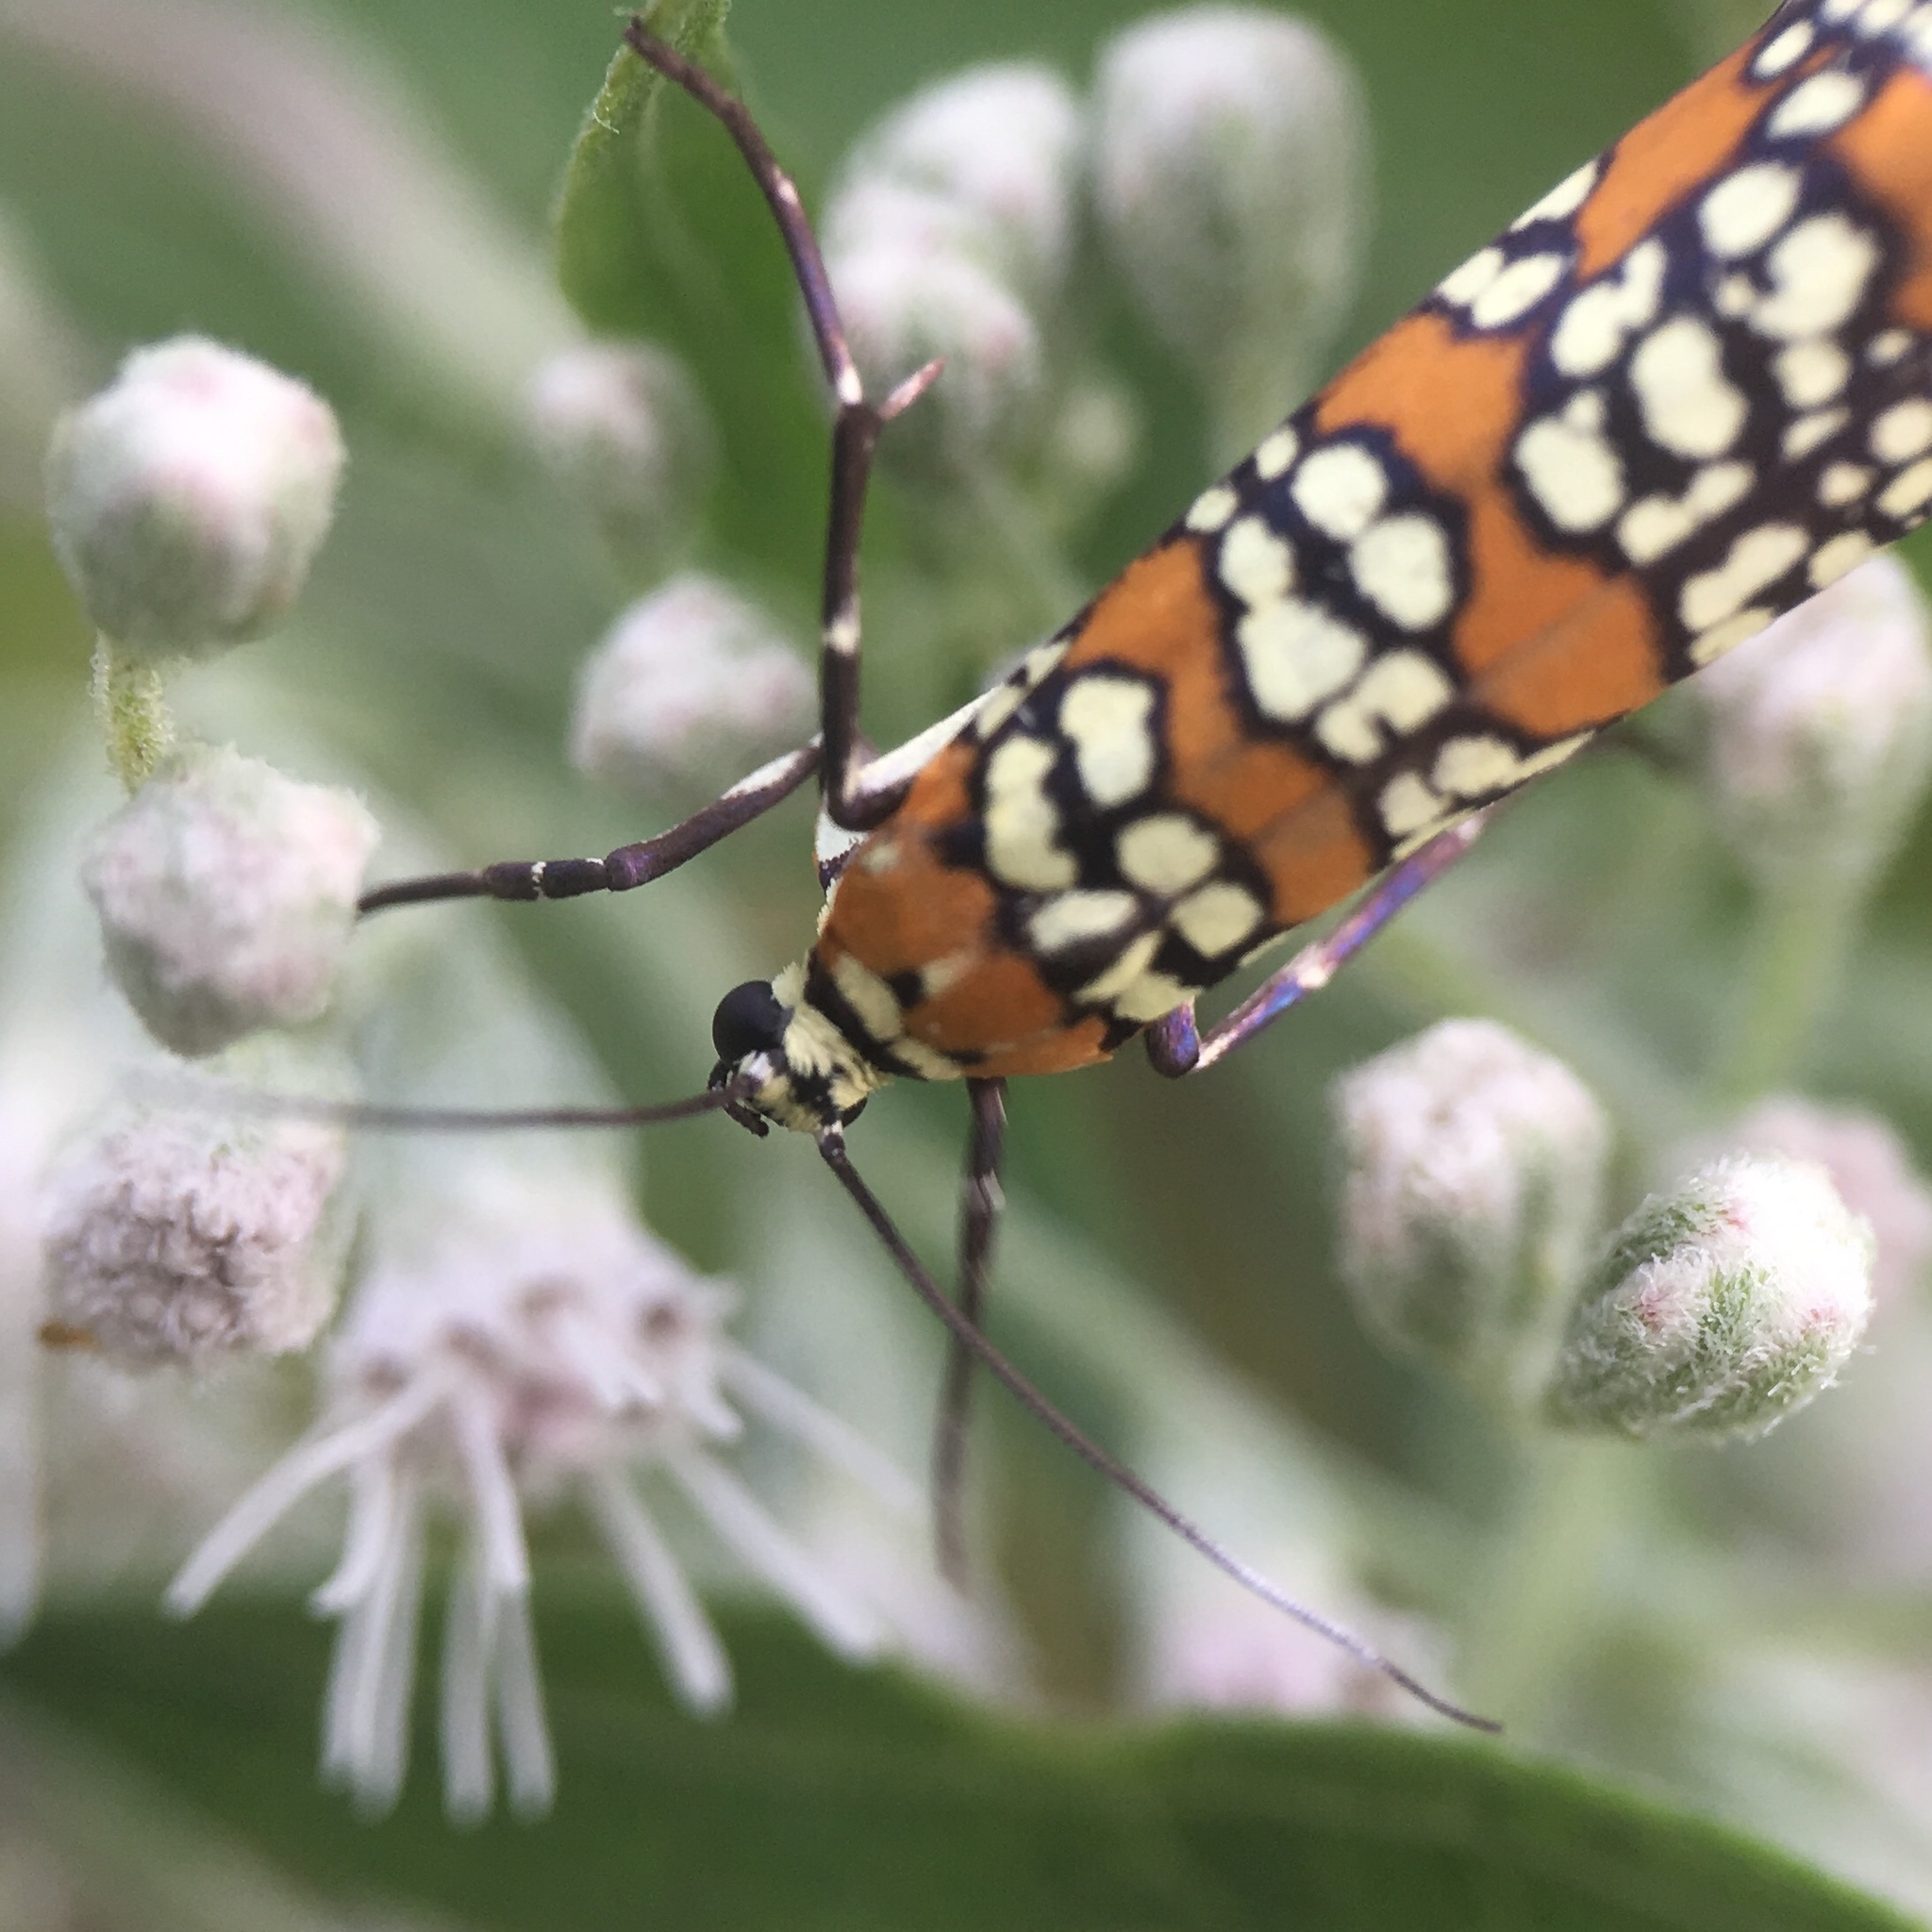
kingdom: Animalia
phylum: Arthropoda
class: Insecta
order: Lepidoptera
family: Attevidae
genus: Atteva
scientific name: Atteva punctella
